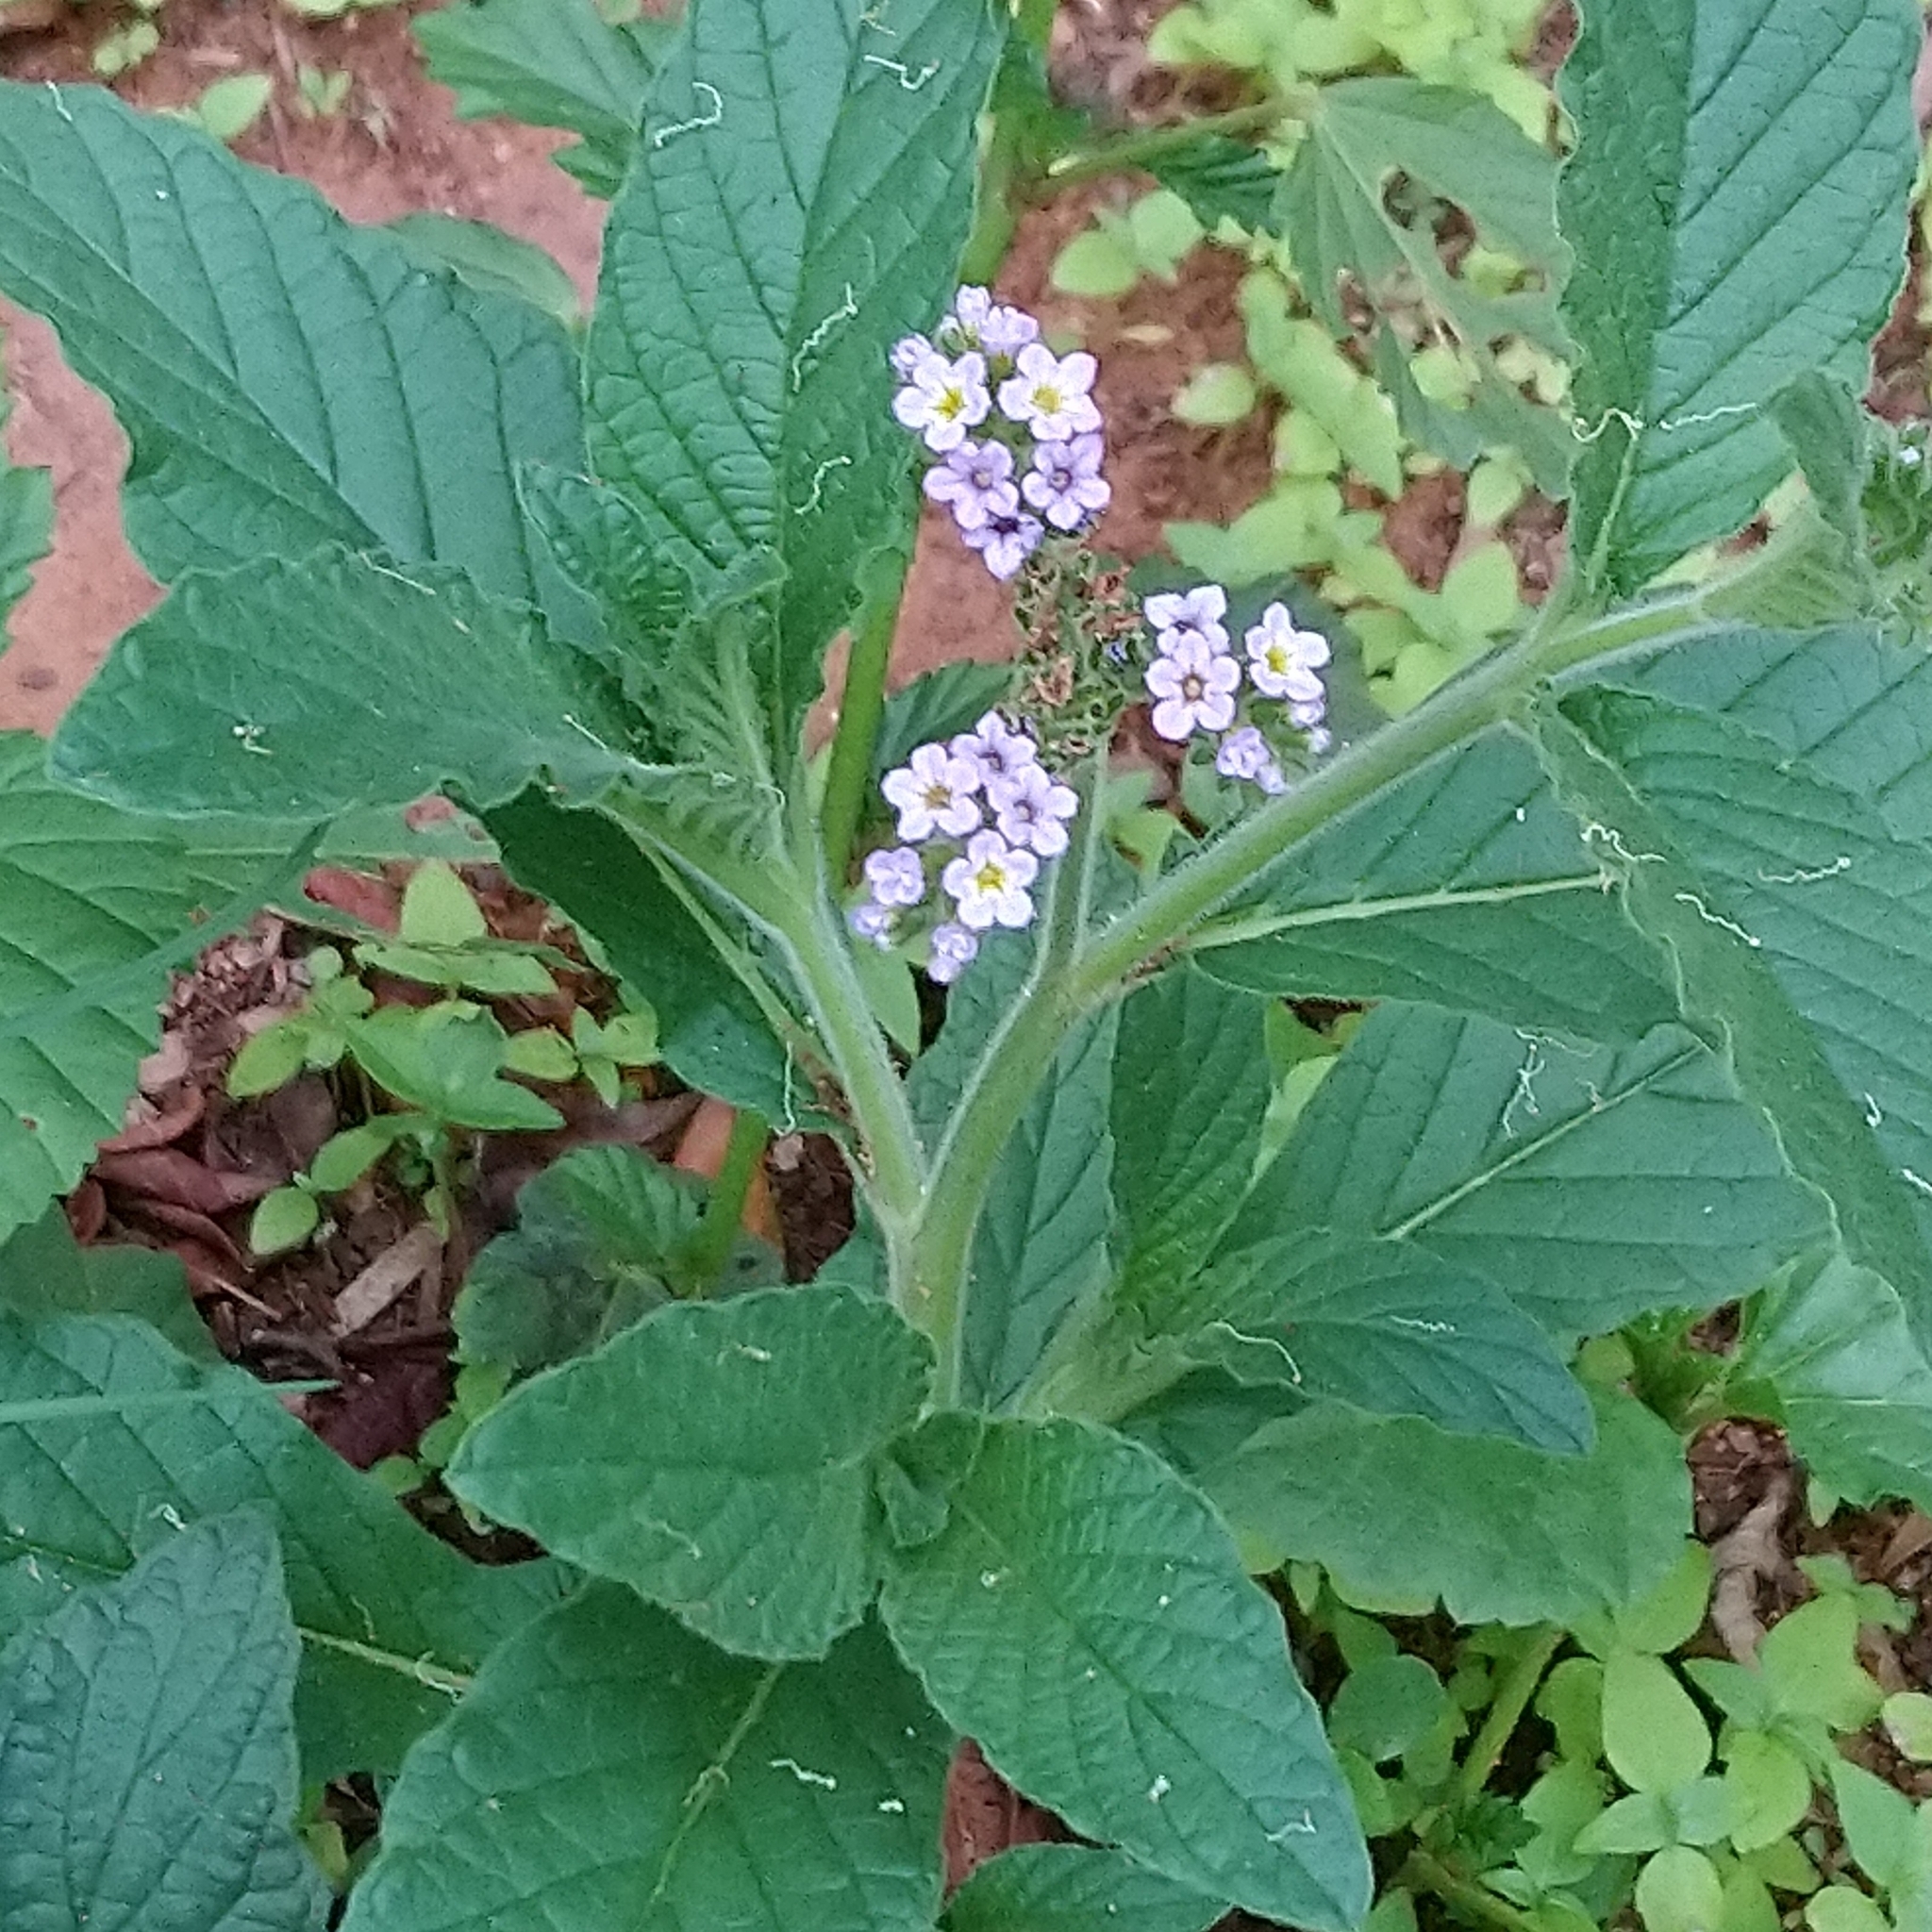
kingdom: Plantae
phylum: Tracheophyta
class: Magnoliopsida
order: Boraginales
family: Heliotropiaceae
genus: Heliotropium
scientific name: Heliotropium amplexicaule
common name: Clasping heliotrope
